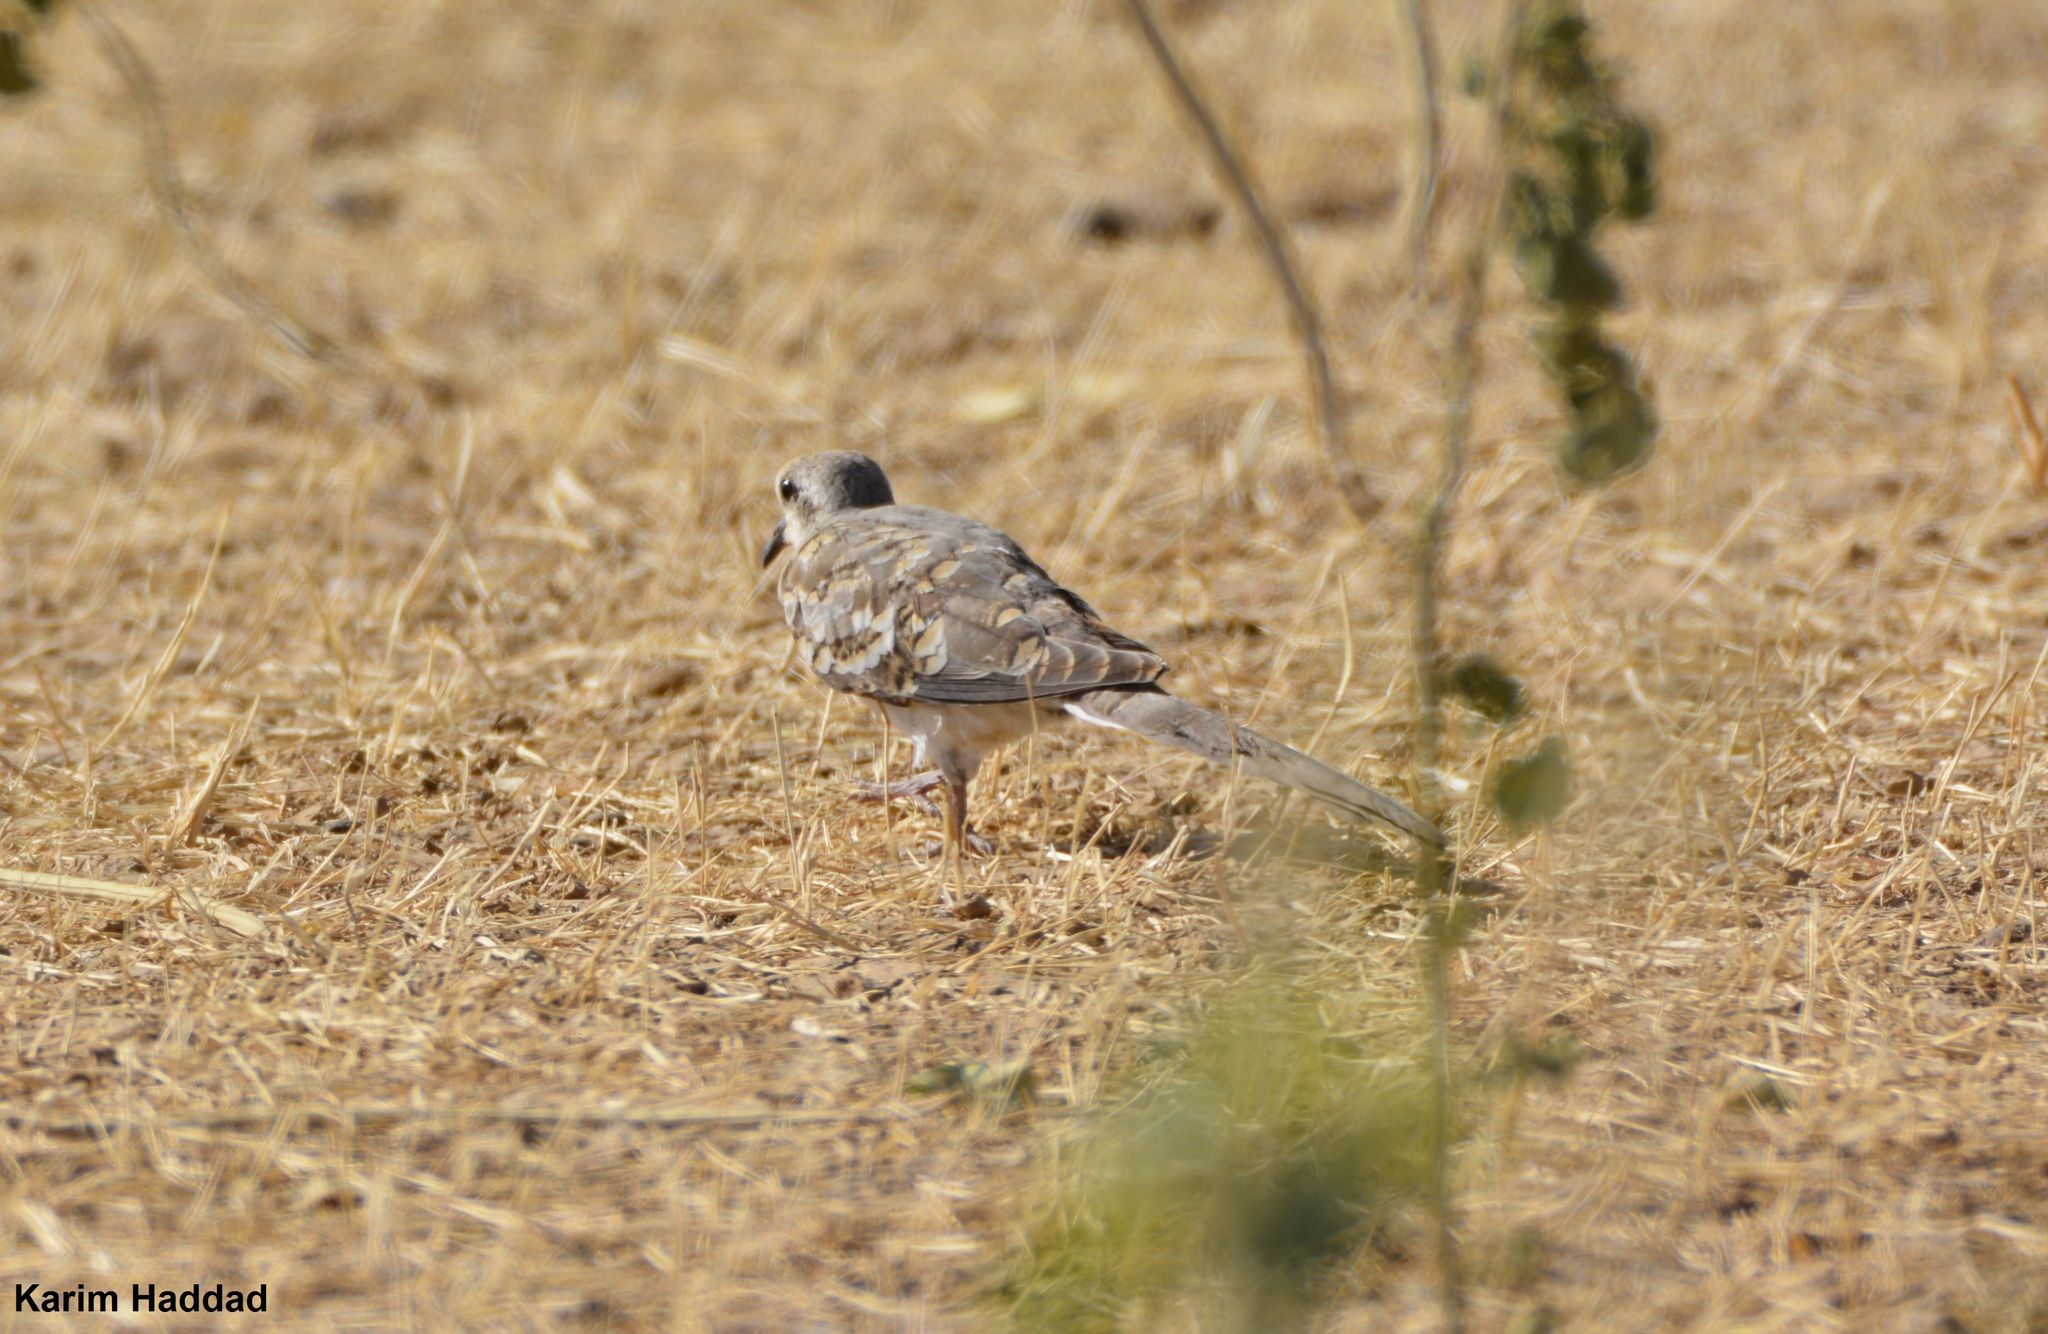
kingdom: Animalia
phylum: Chordata
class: Aves
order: Columbiformes
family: Columbidae
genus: Oena
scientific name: Oena capensis
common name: Namaqua dove
